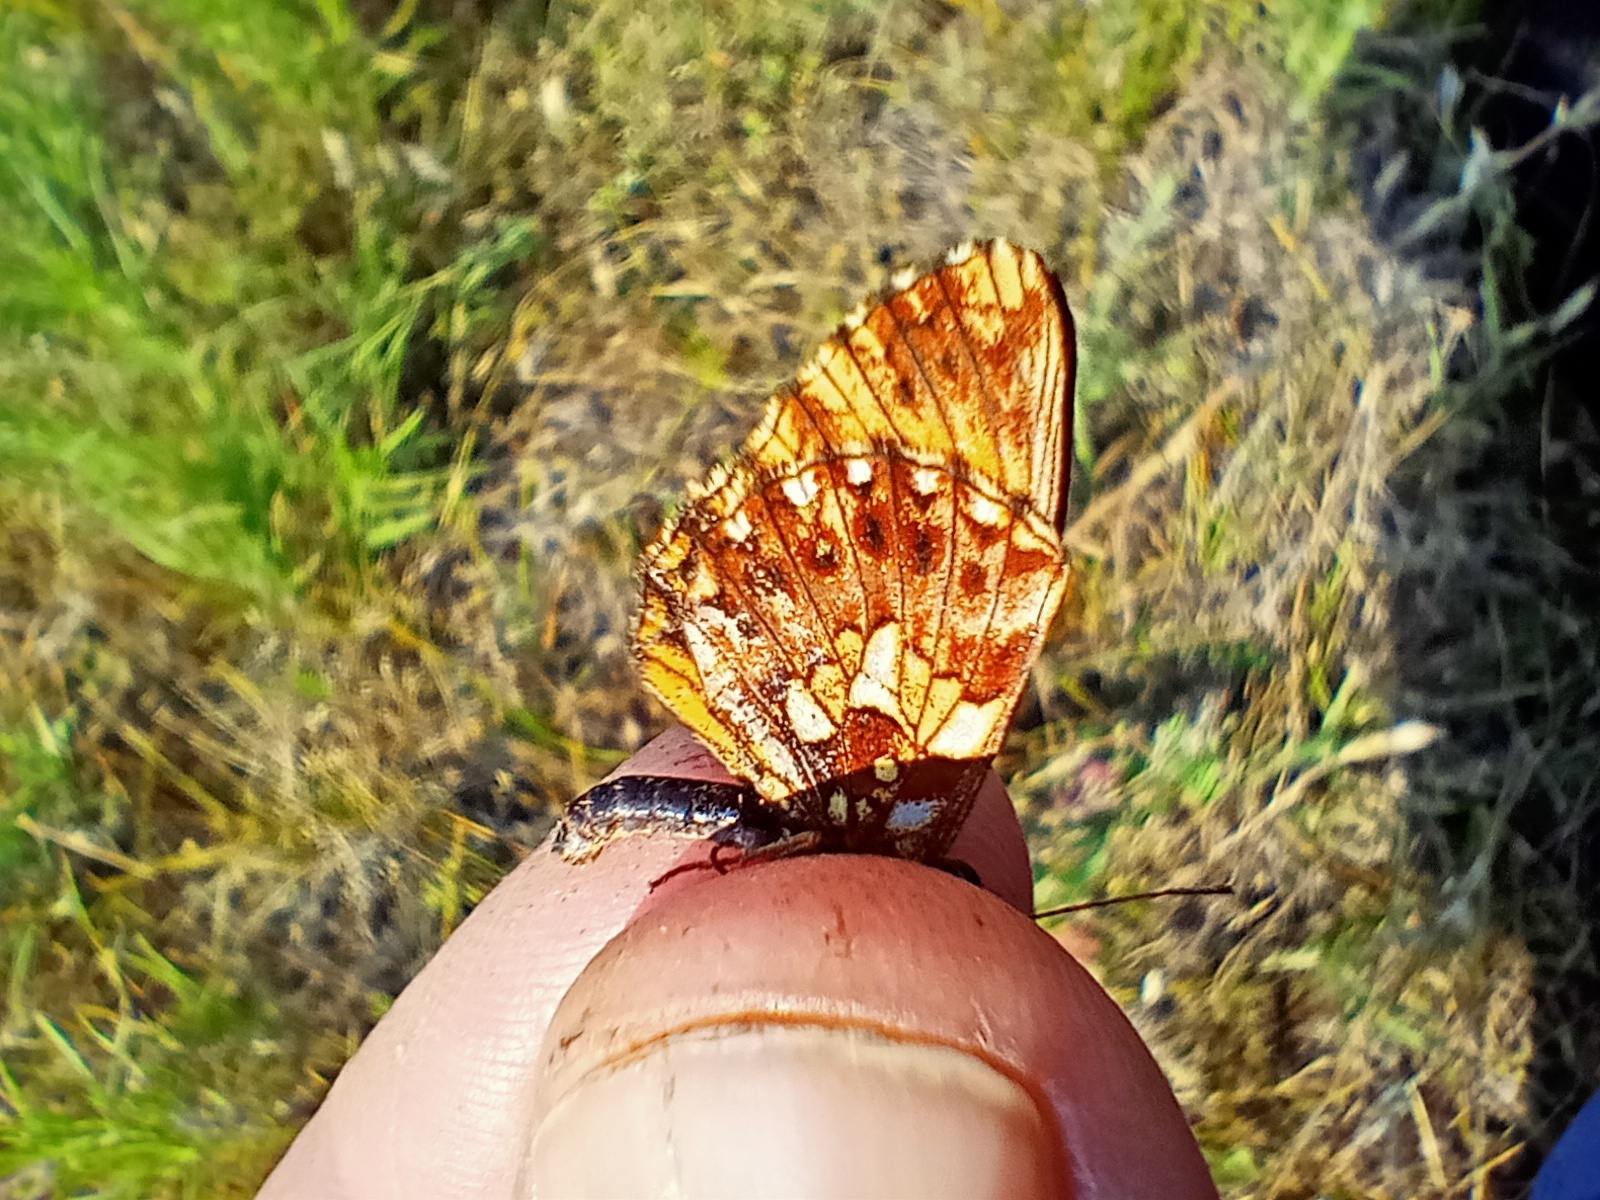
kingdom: Animalia
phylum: Arthropoda
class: Insecta
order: Lepidoptera
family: Nymphalidae
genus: Boloria
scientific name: Boloria dia
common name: Weaver's fritillary
